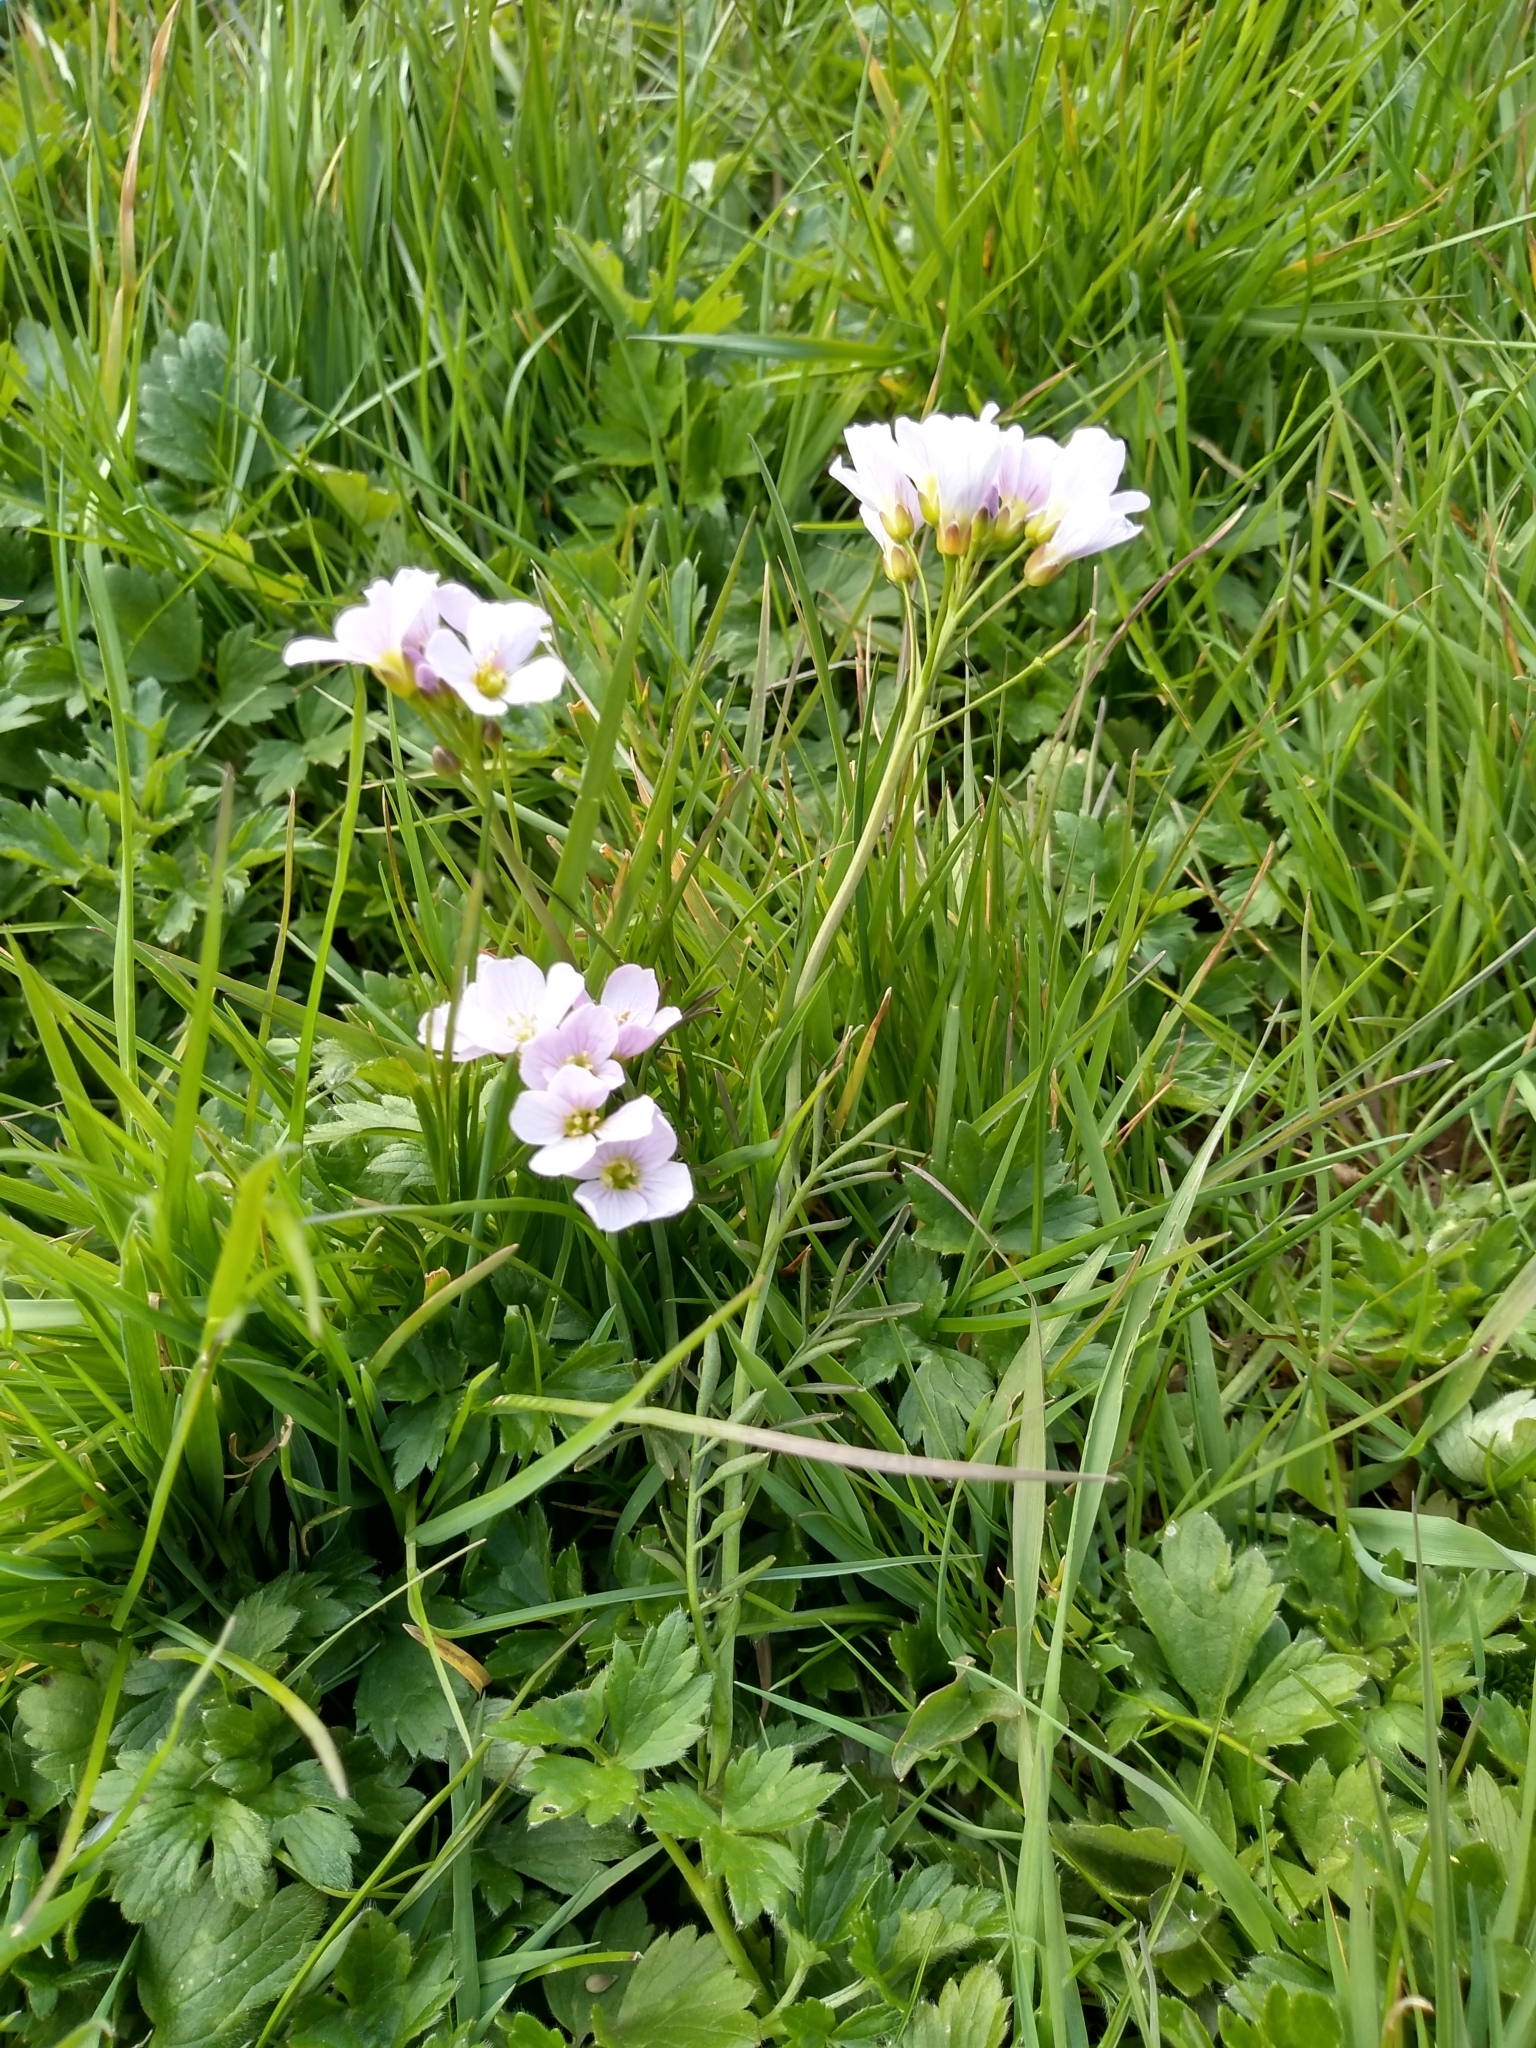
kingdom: Plantae
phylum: Tracheophyta
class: Magnoliopsida
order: Brassicales
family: Brassicaceae
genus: Cardamine
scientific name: Cardamine pratensis
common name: Cuckoo flower
